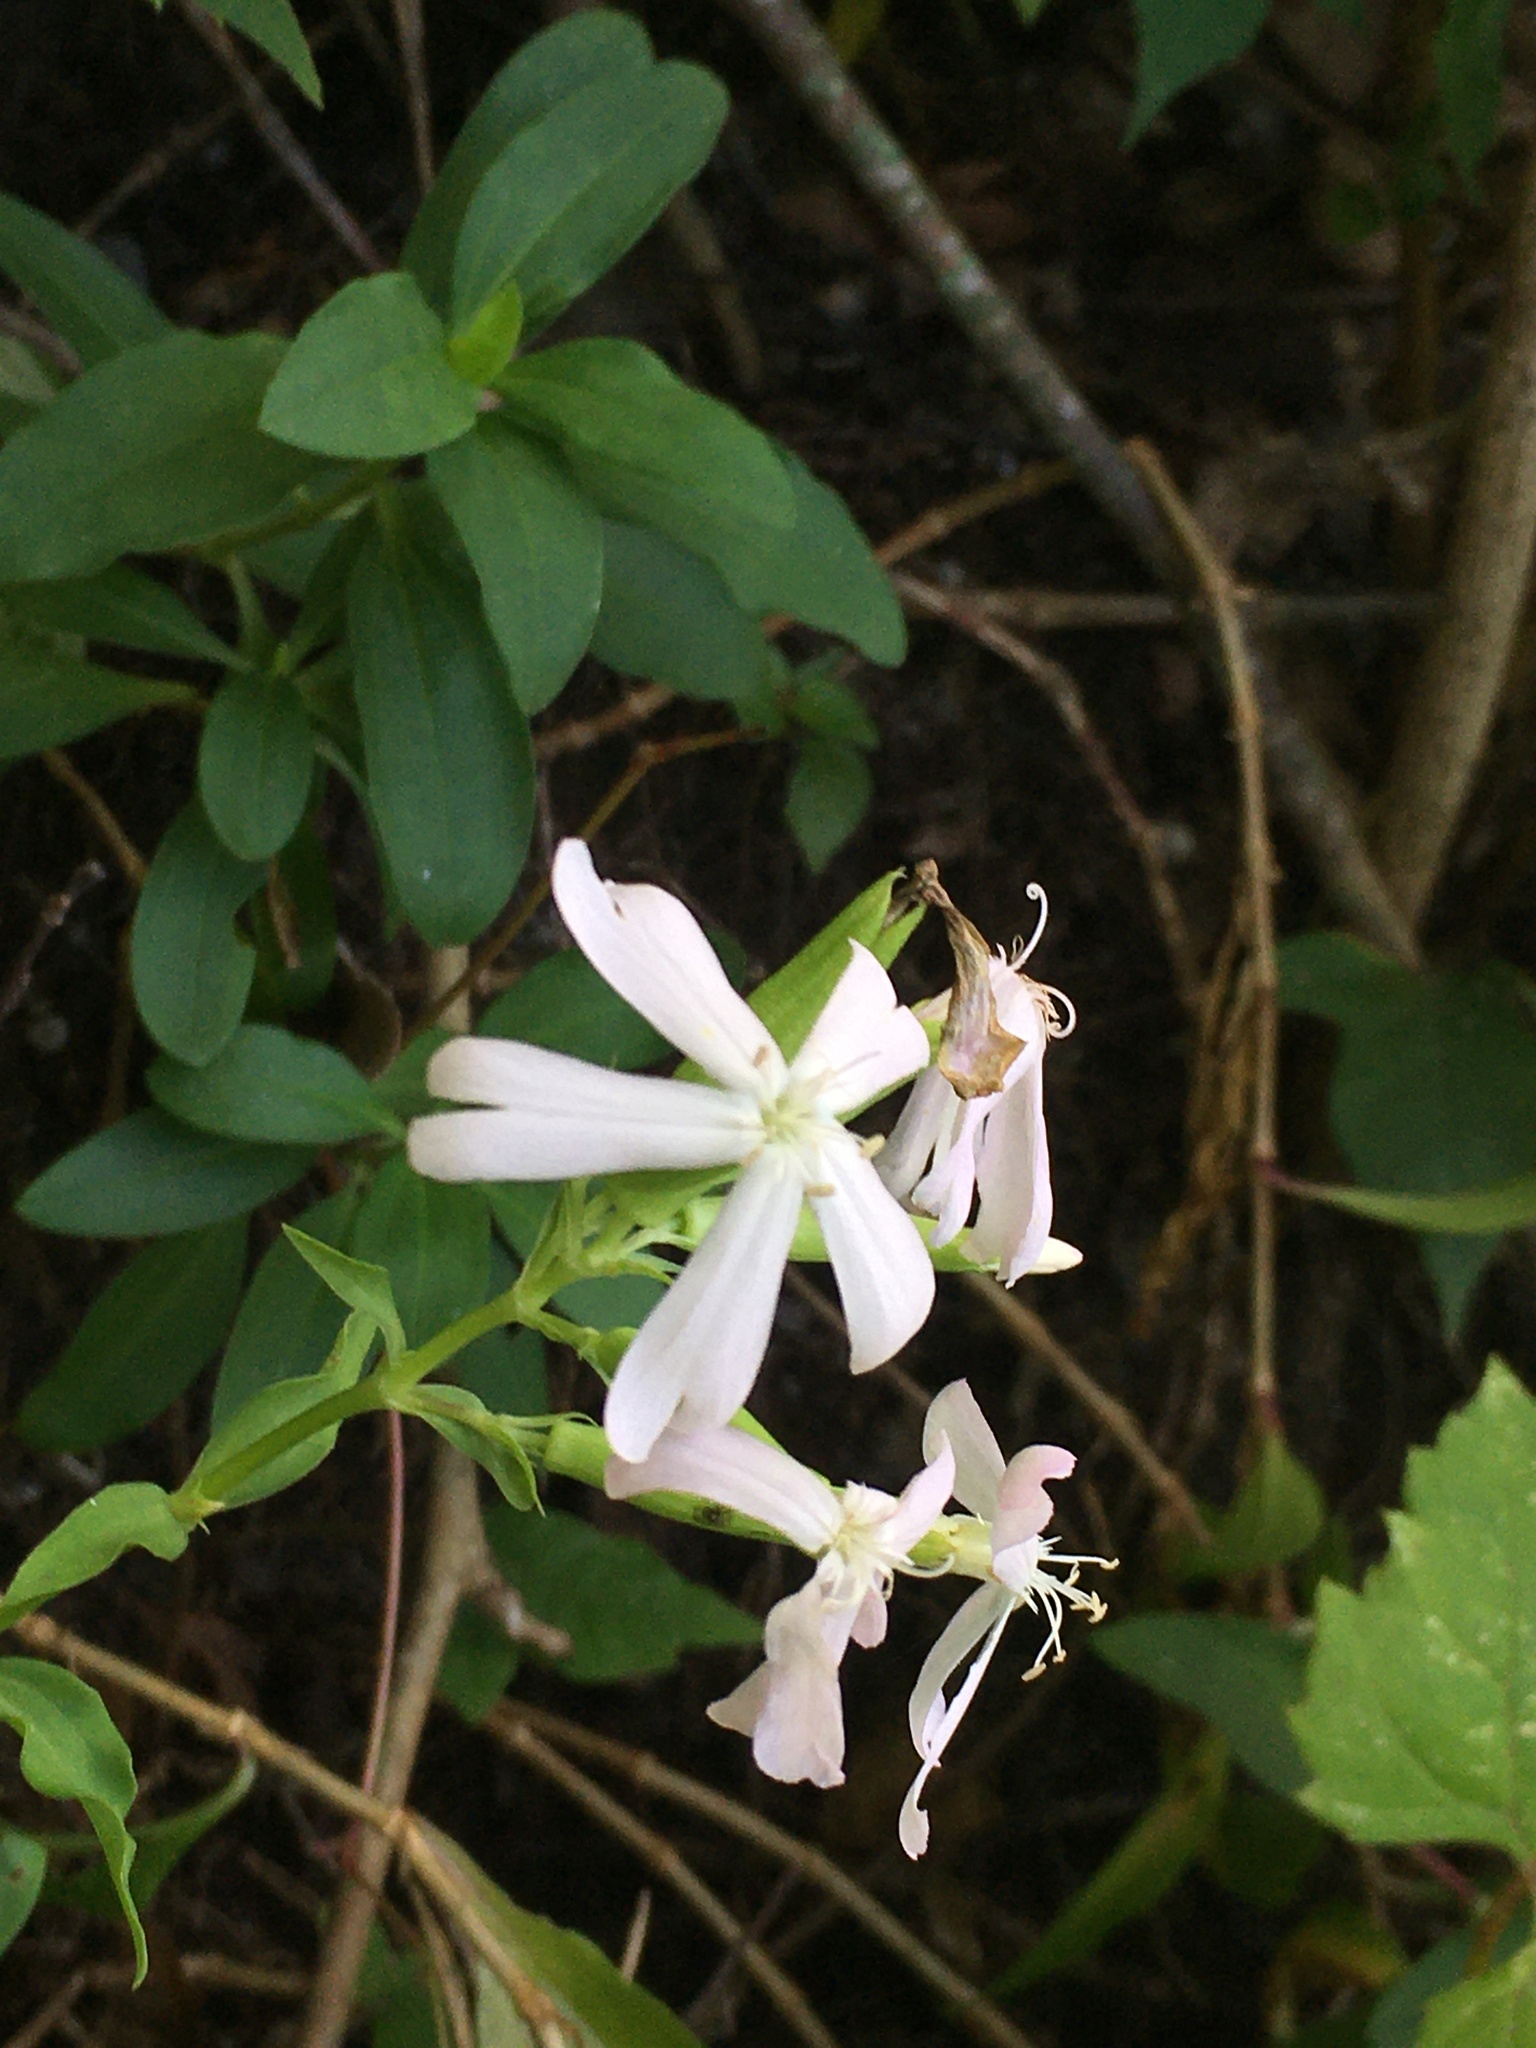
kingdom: Plantae
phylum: Tracheophyta
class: Magnoliopsida
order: Caryophyllales
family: Caryophyllaceae
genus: Saponaria
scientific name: Saponaria officinalis
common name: Soapwort
